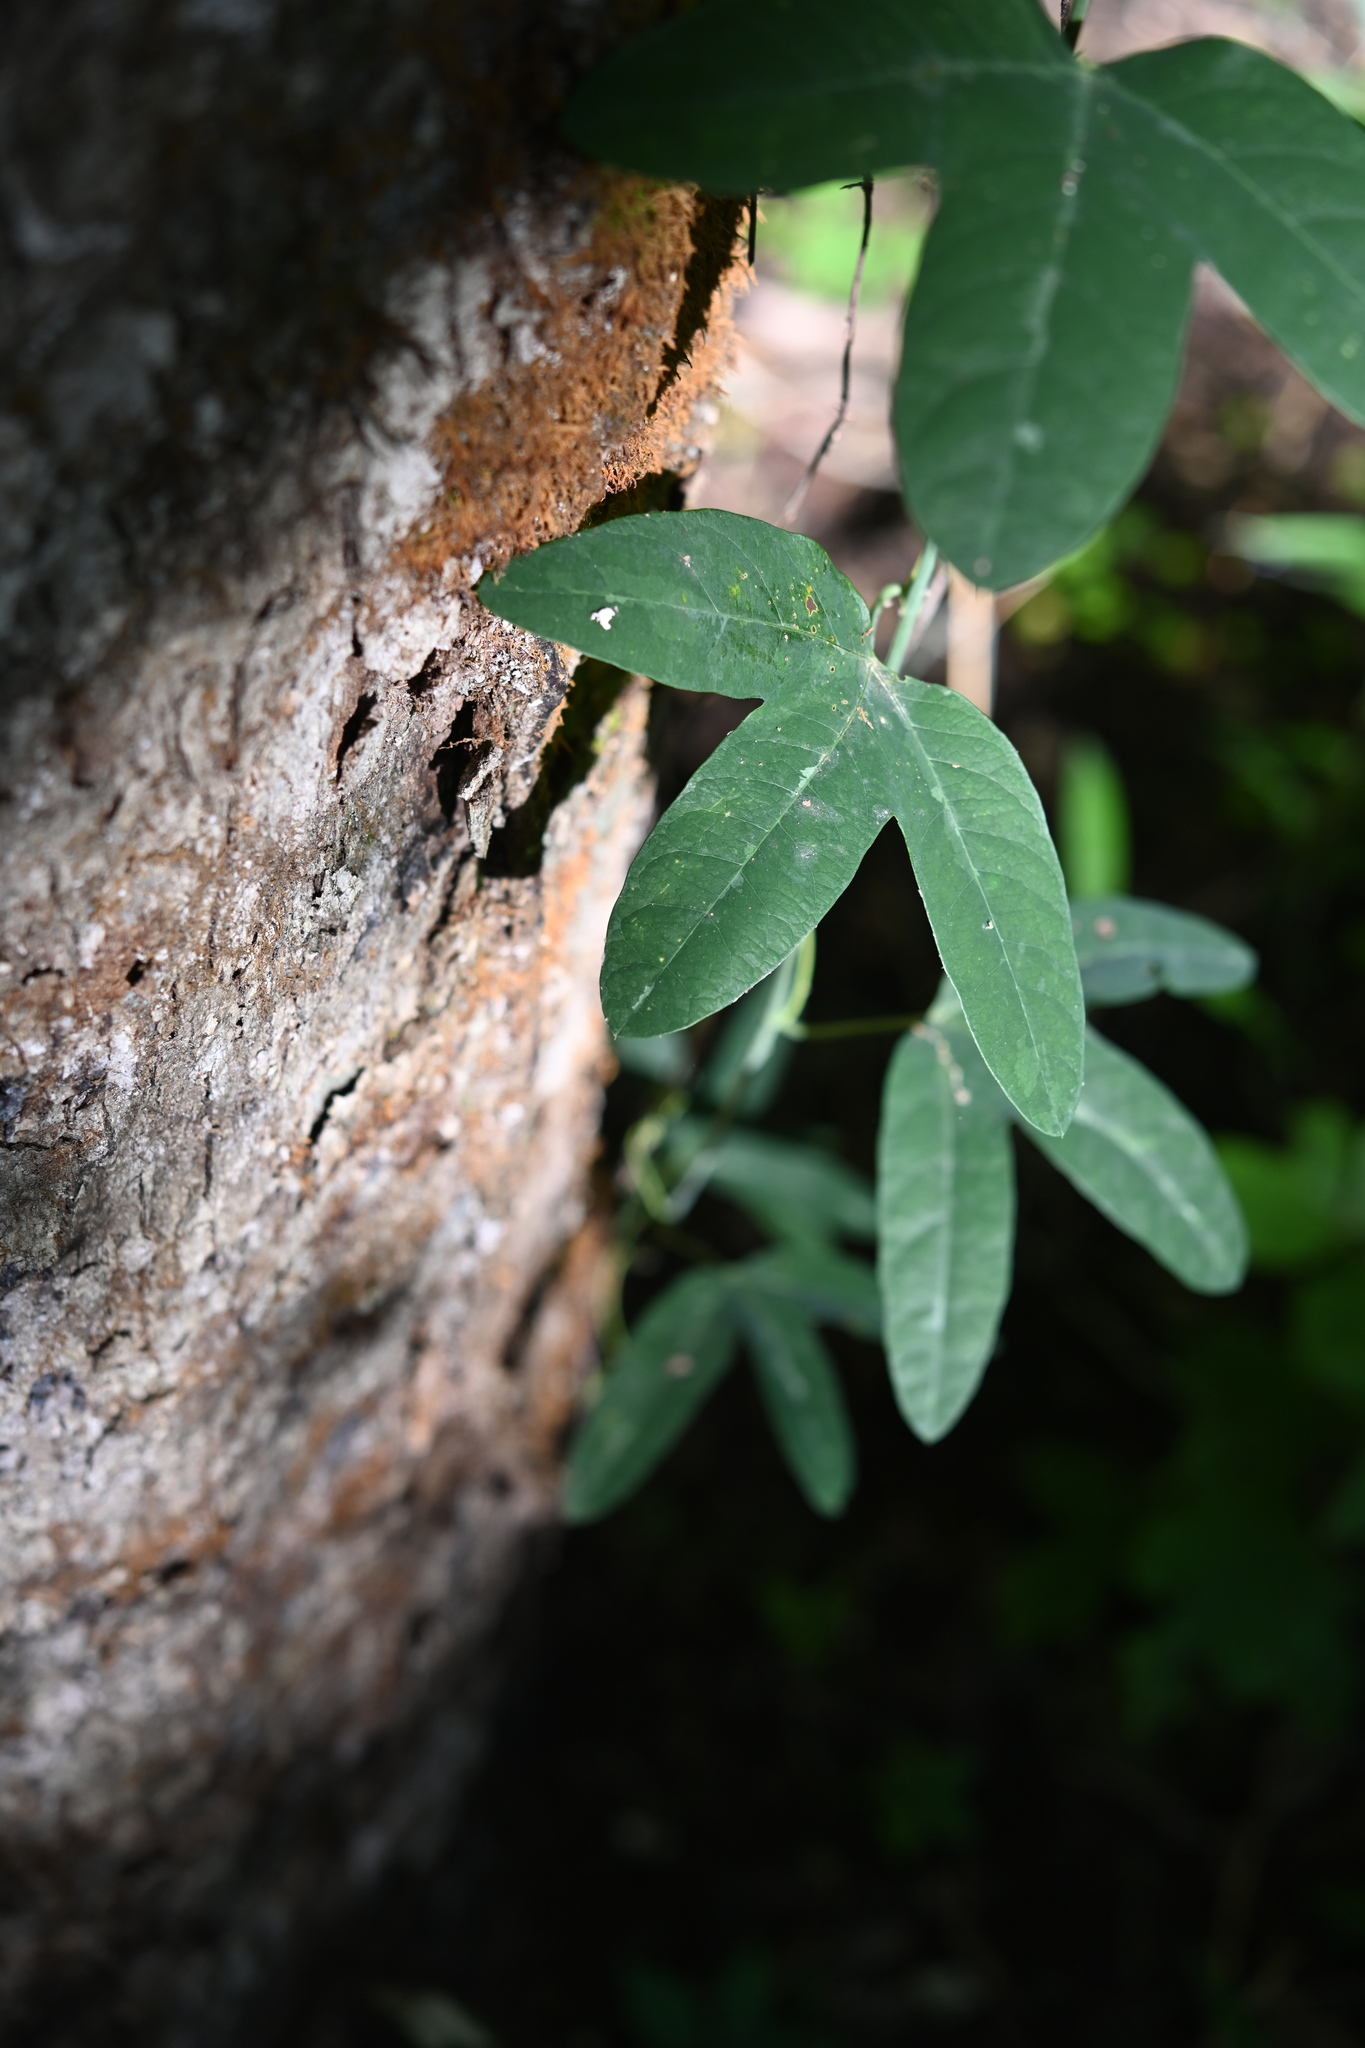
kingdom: Plantae
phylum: Tracheophyta
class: Magnoliopsida
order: Malpighiales
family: Passifloraceae
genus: Passiflora
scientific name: Passiflora lutea
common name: Yellow passionflower
